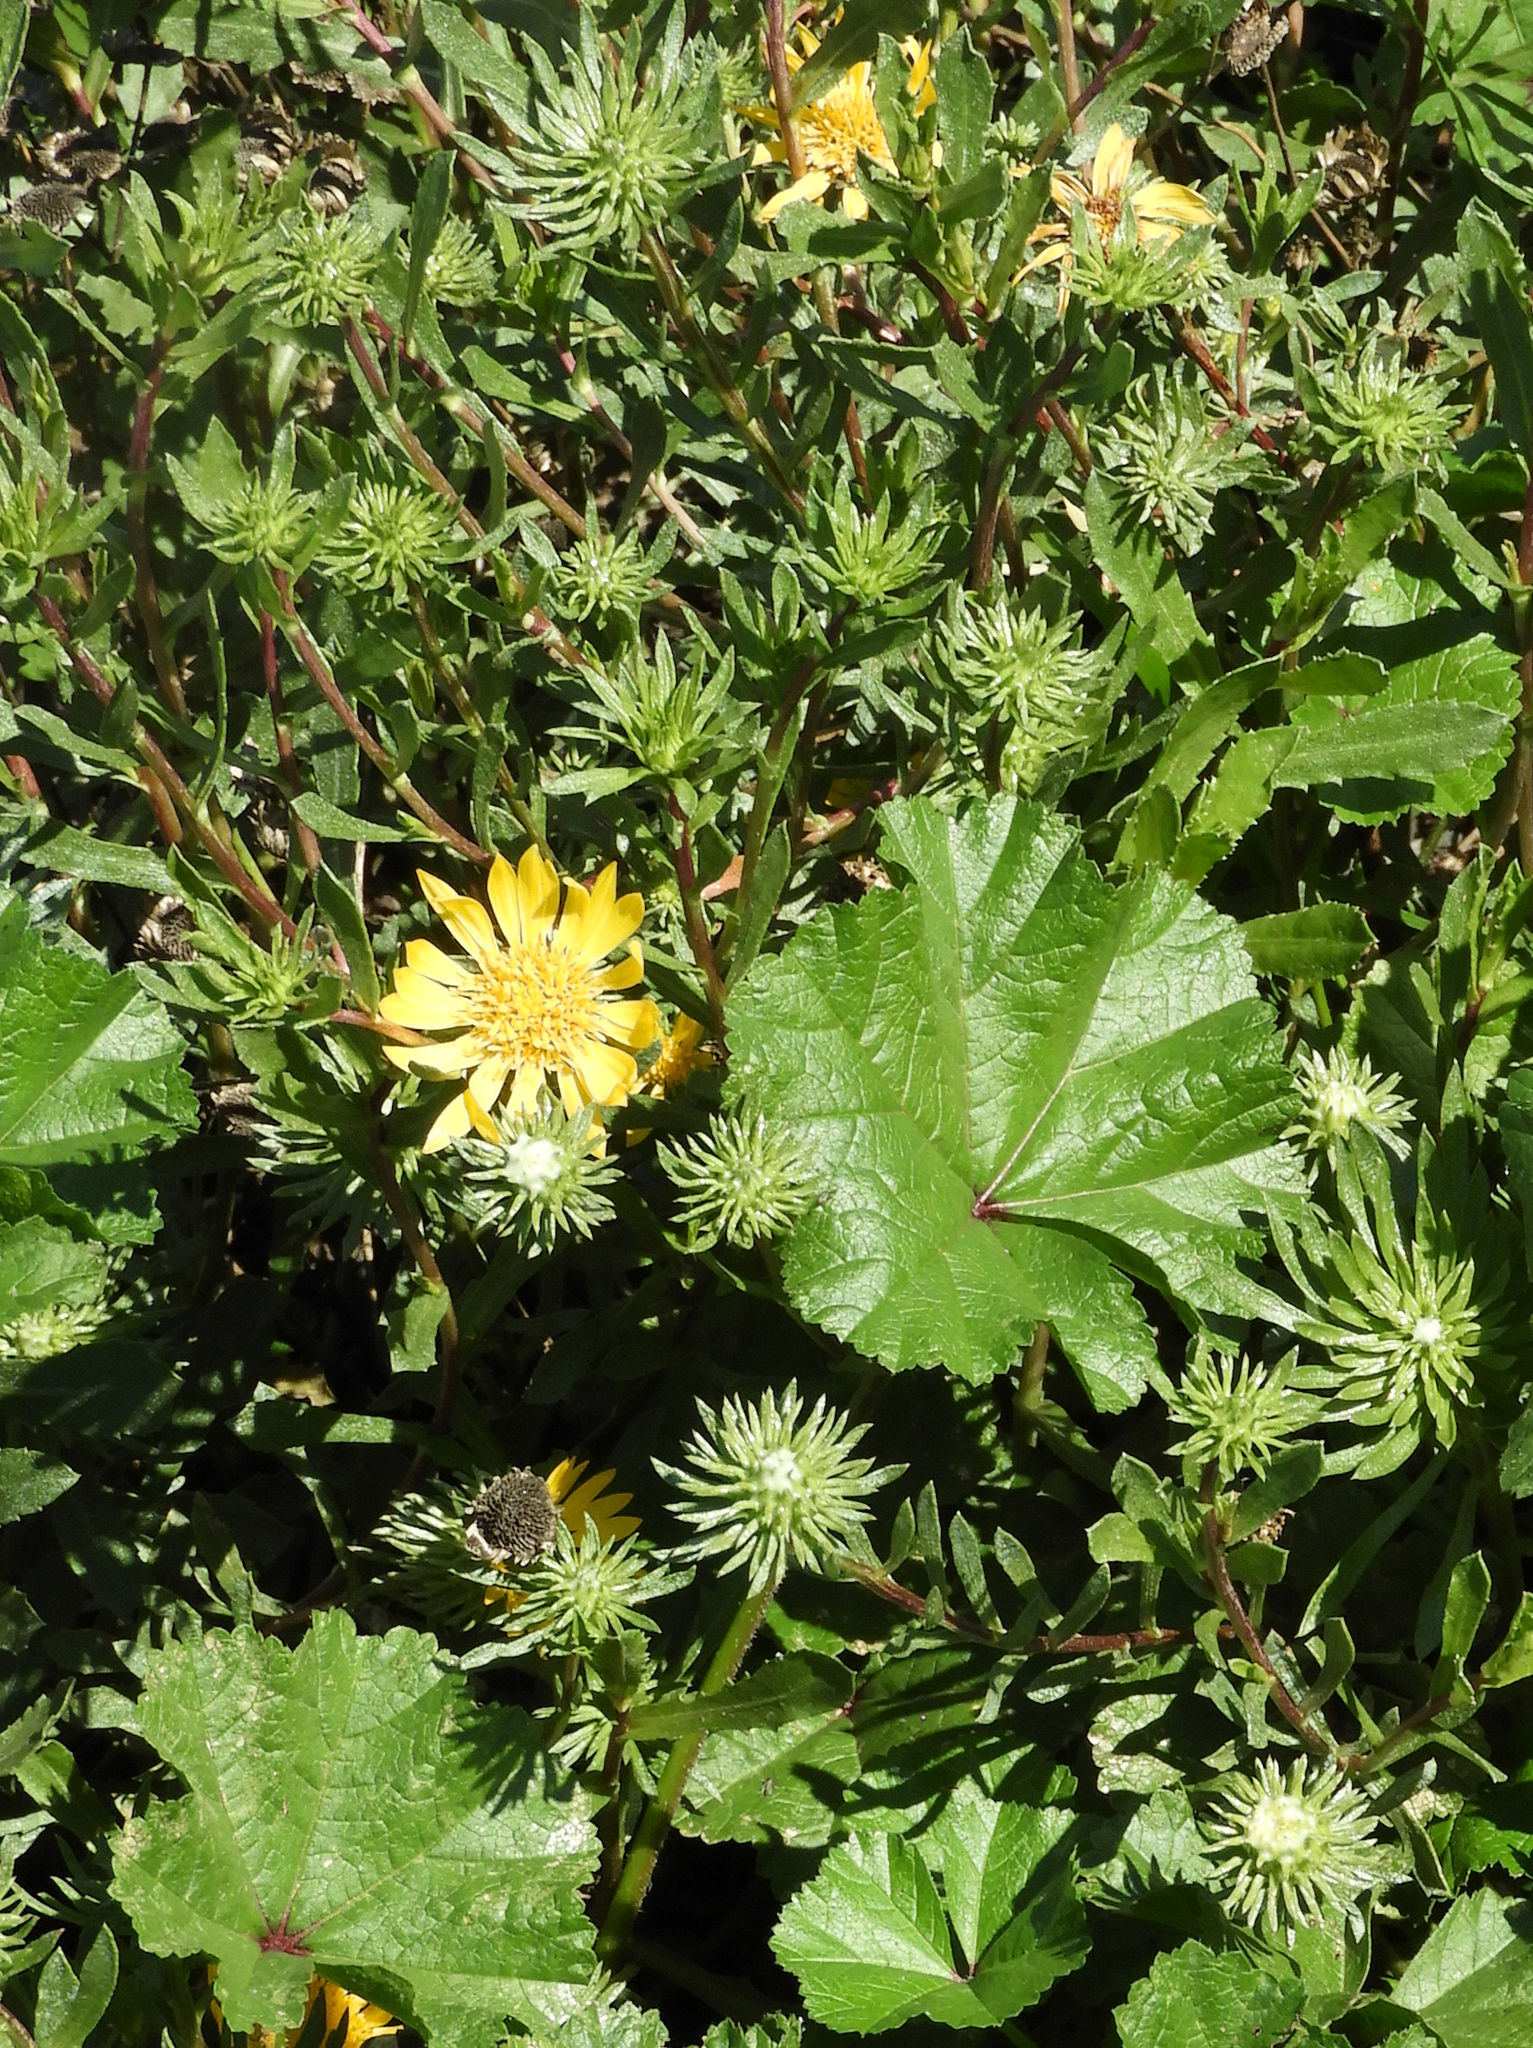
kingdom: Plantae
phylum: Tracheophyta
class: Magnoliopsida
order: Asterales
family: Asteraceae
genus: Grindelia
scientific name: Grindelia hirsutula
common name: Hairy gumweed
